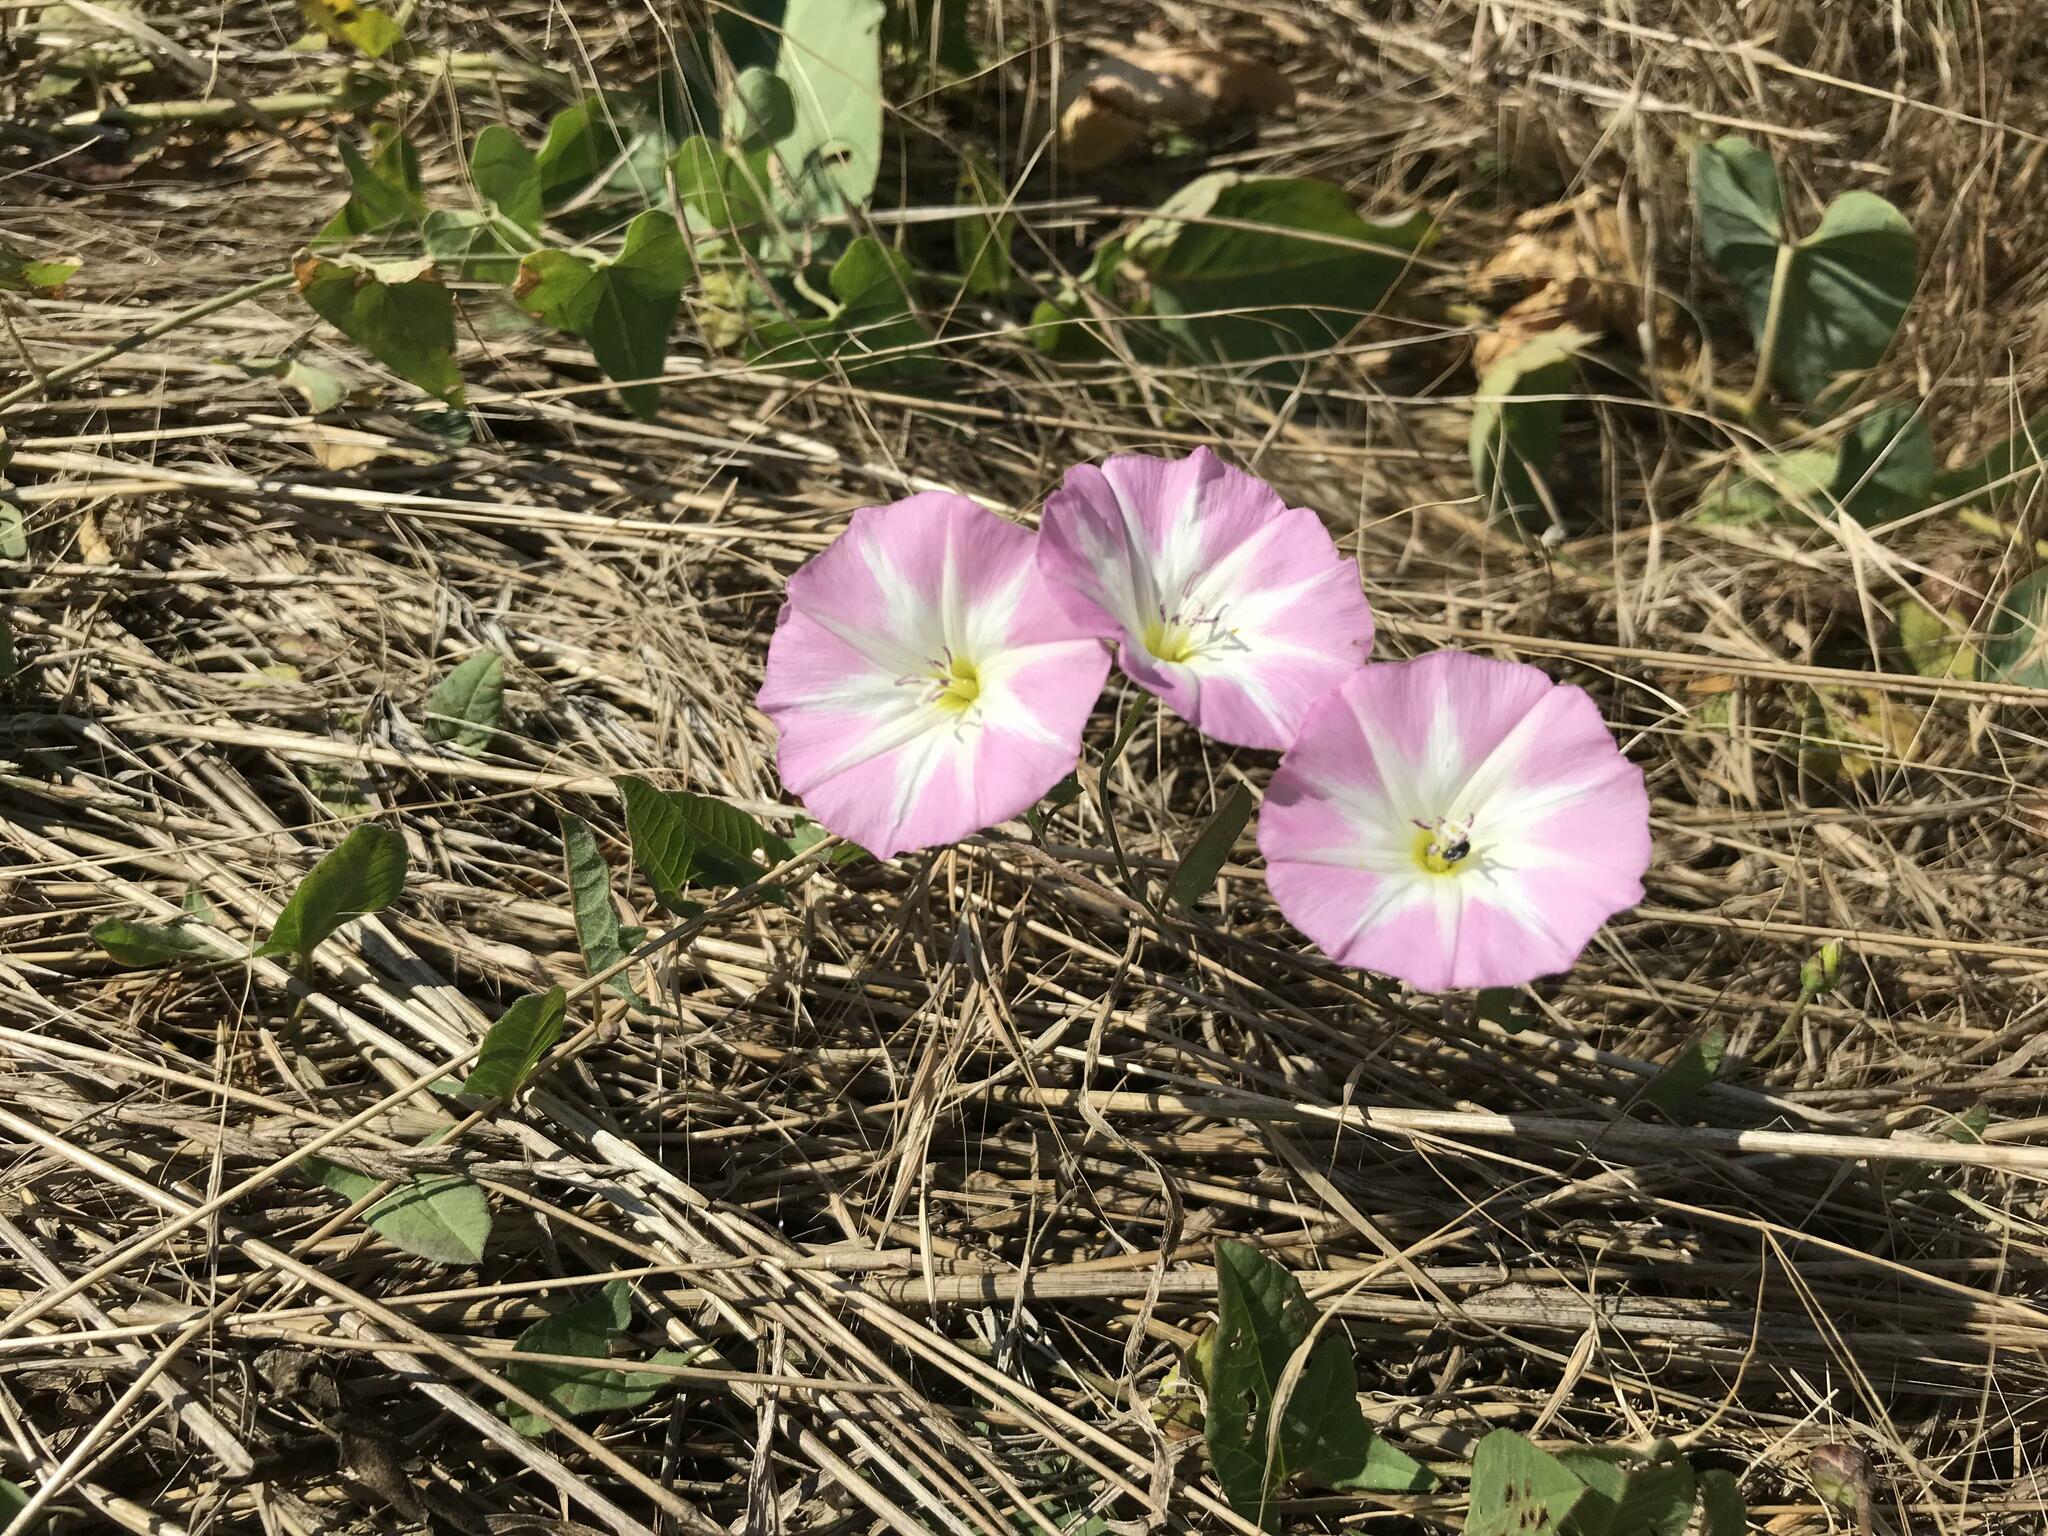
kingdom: Plantae
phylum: Tracheophyta
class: Magnoliopsida
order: Solanales
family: Convolvulaceae
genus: Convolvulus
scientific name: Convolvulus arvensis
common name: Field bindweed
